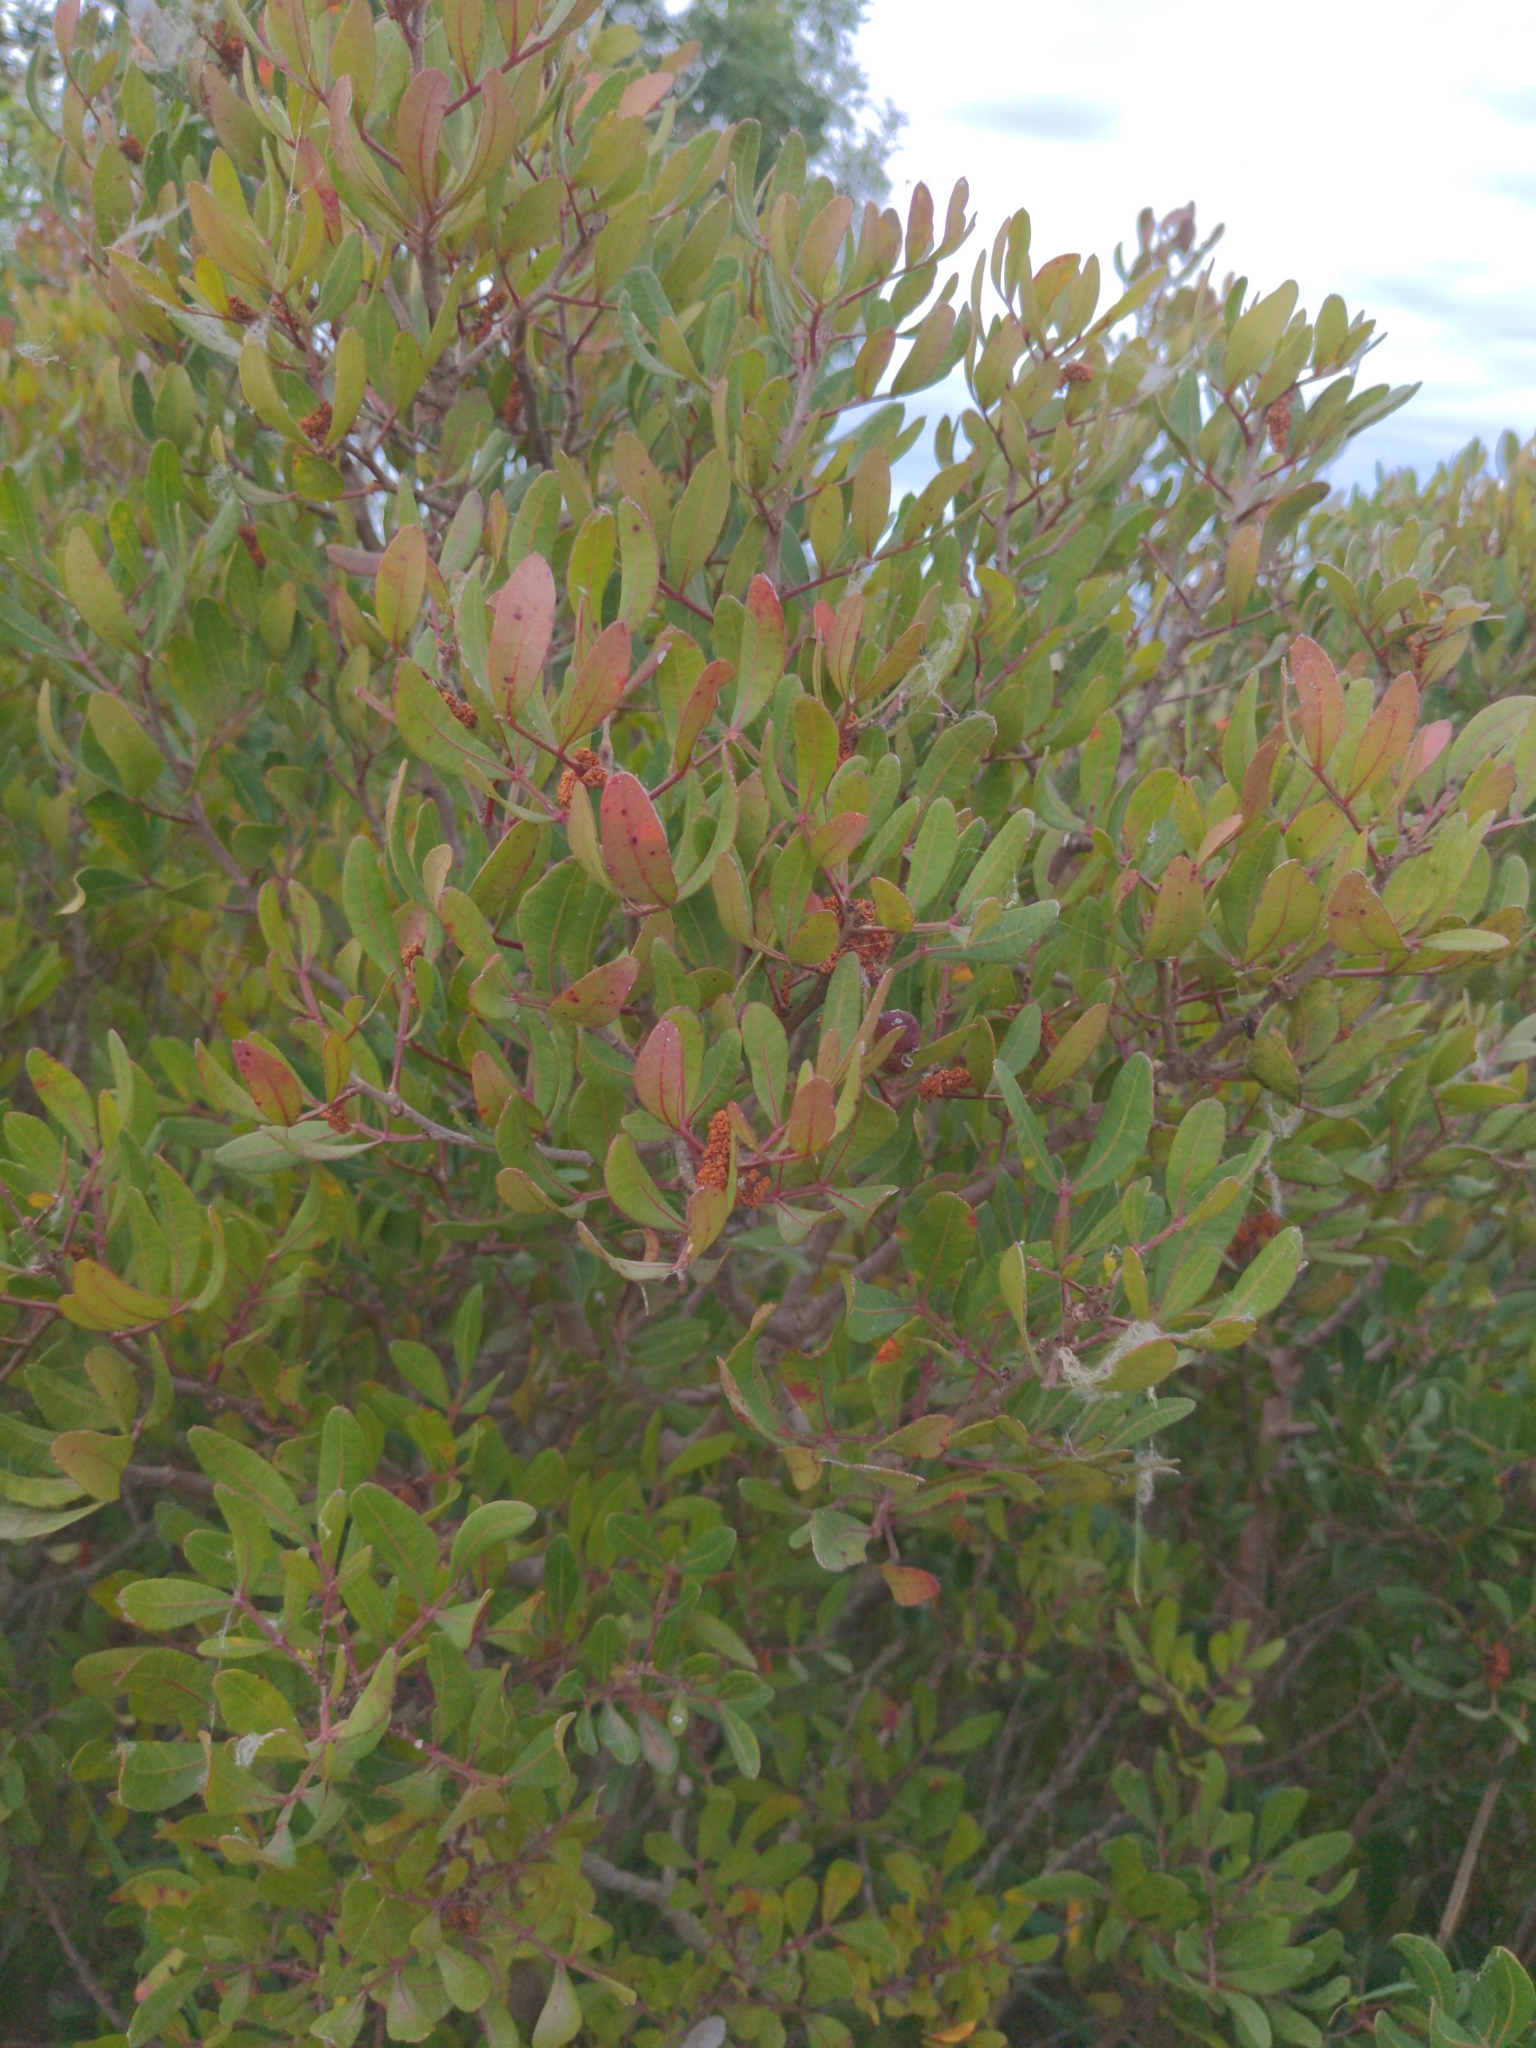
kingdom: Plantae
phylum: Tracheophyta
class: Magnoliopsida
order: Sapindales
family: Anacardiaceae
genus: Pistacia
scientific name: Pistacia lentiscus
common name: Lentisk
